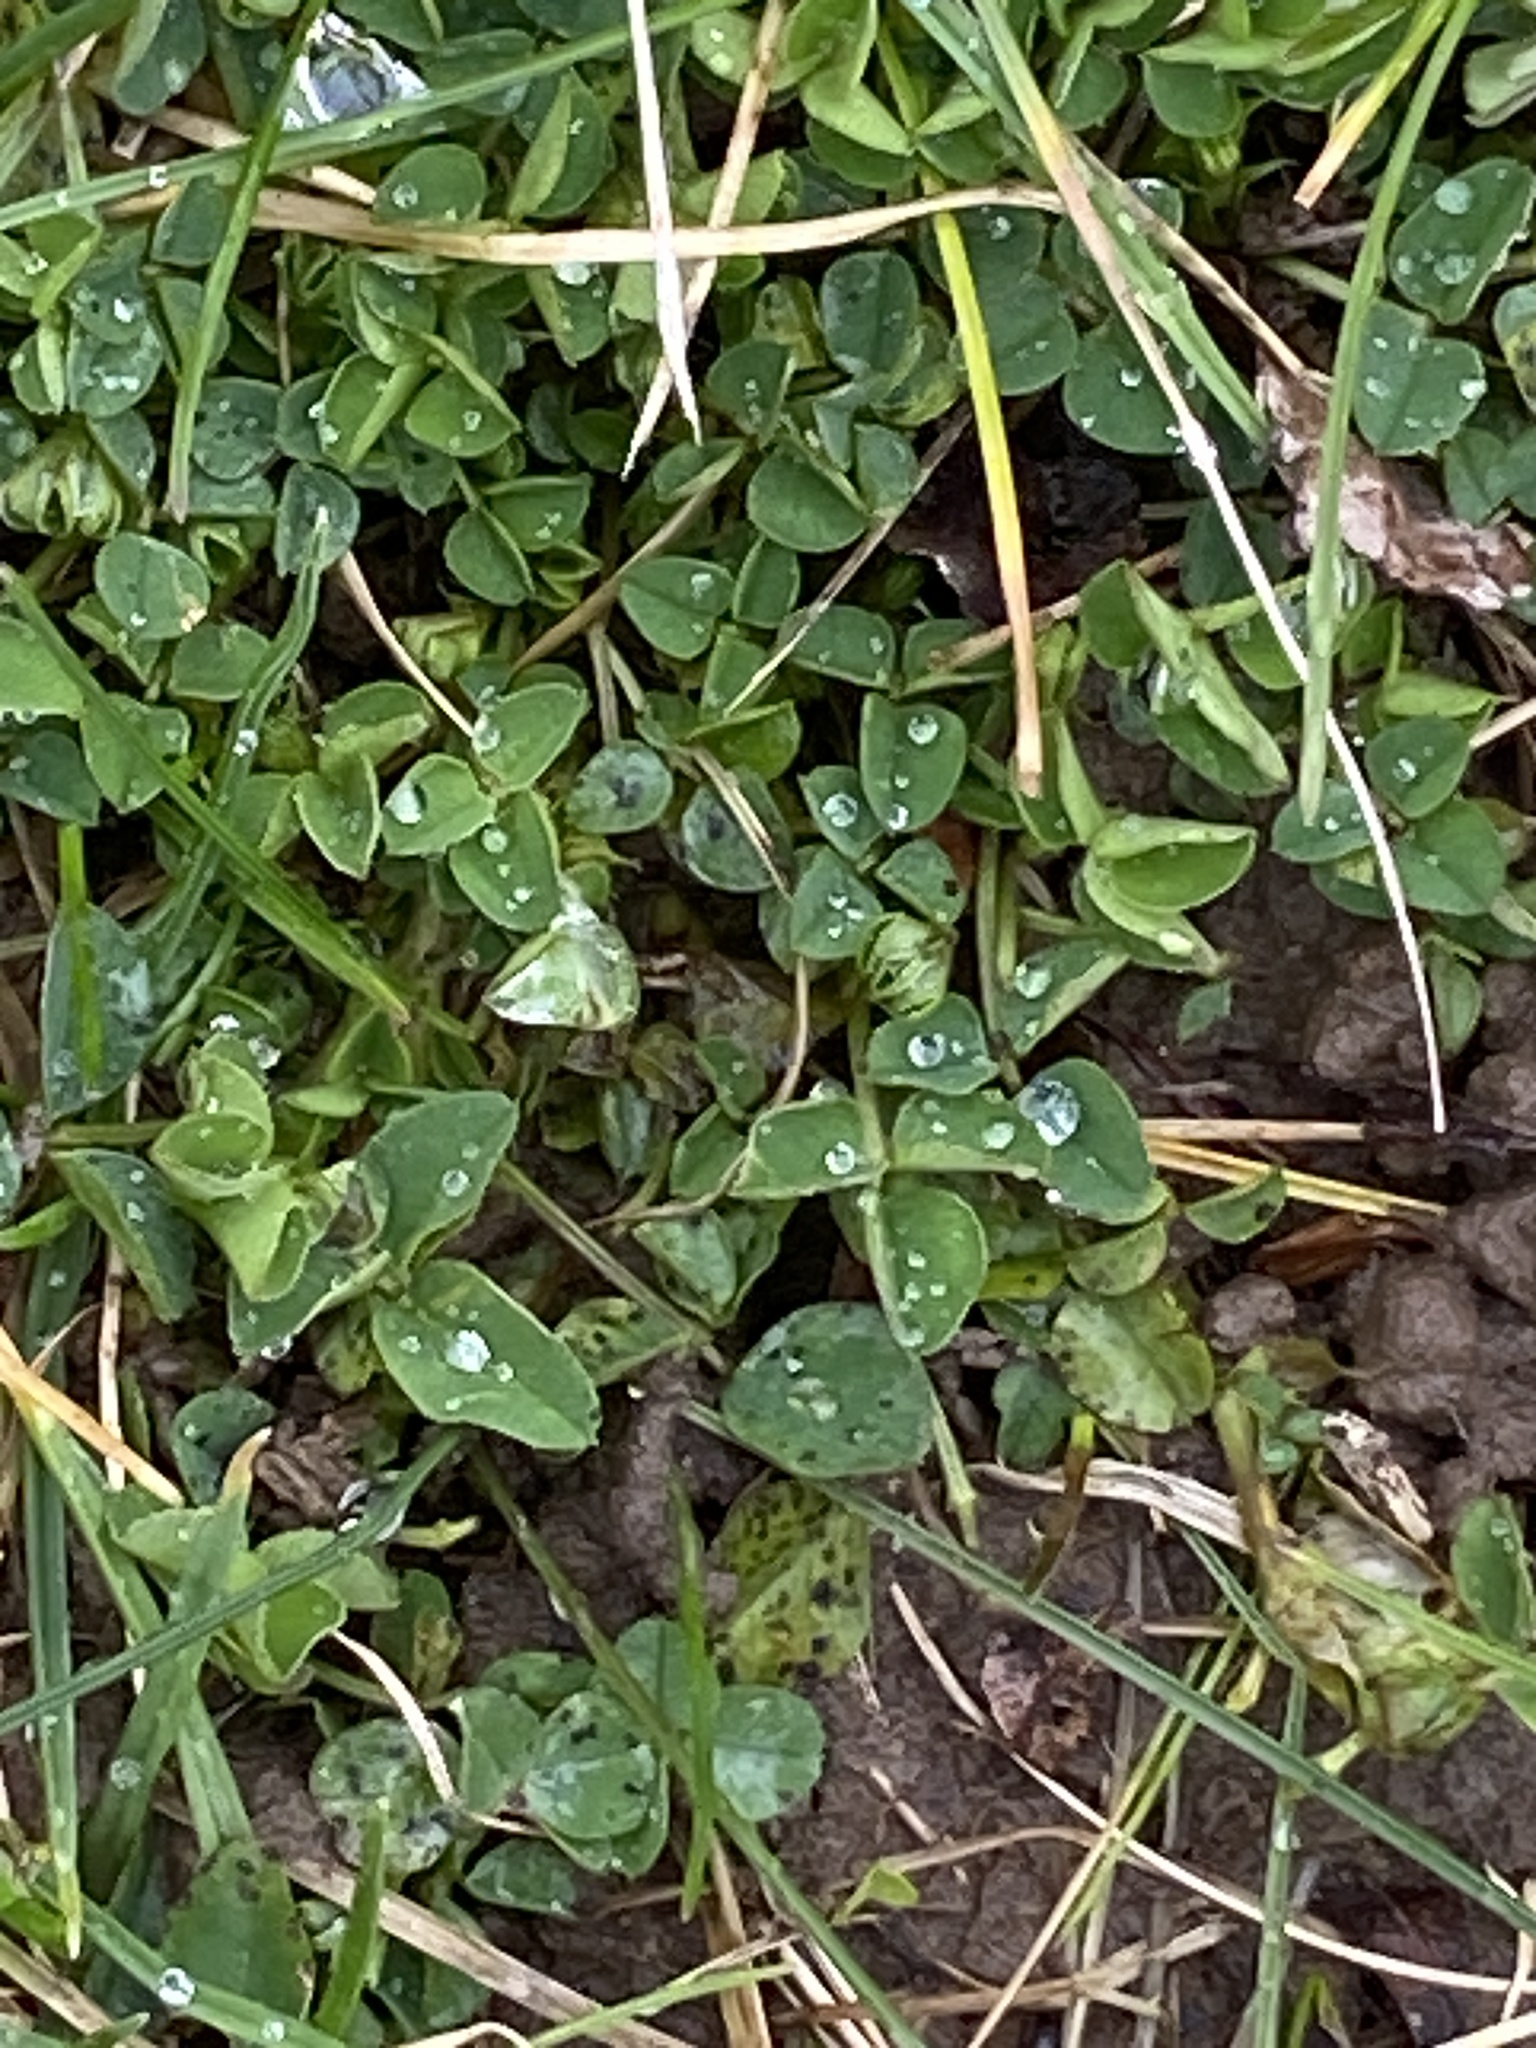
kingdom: Plantae
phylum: Tracheophyta
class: Magnoliopsida
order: Fabales
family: Fabaceae
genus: Medicago
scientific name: Medicago lupulina
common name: Black medick
